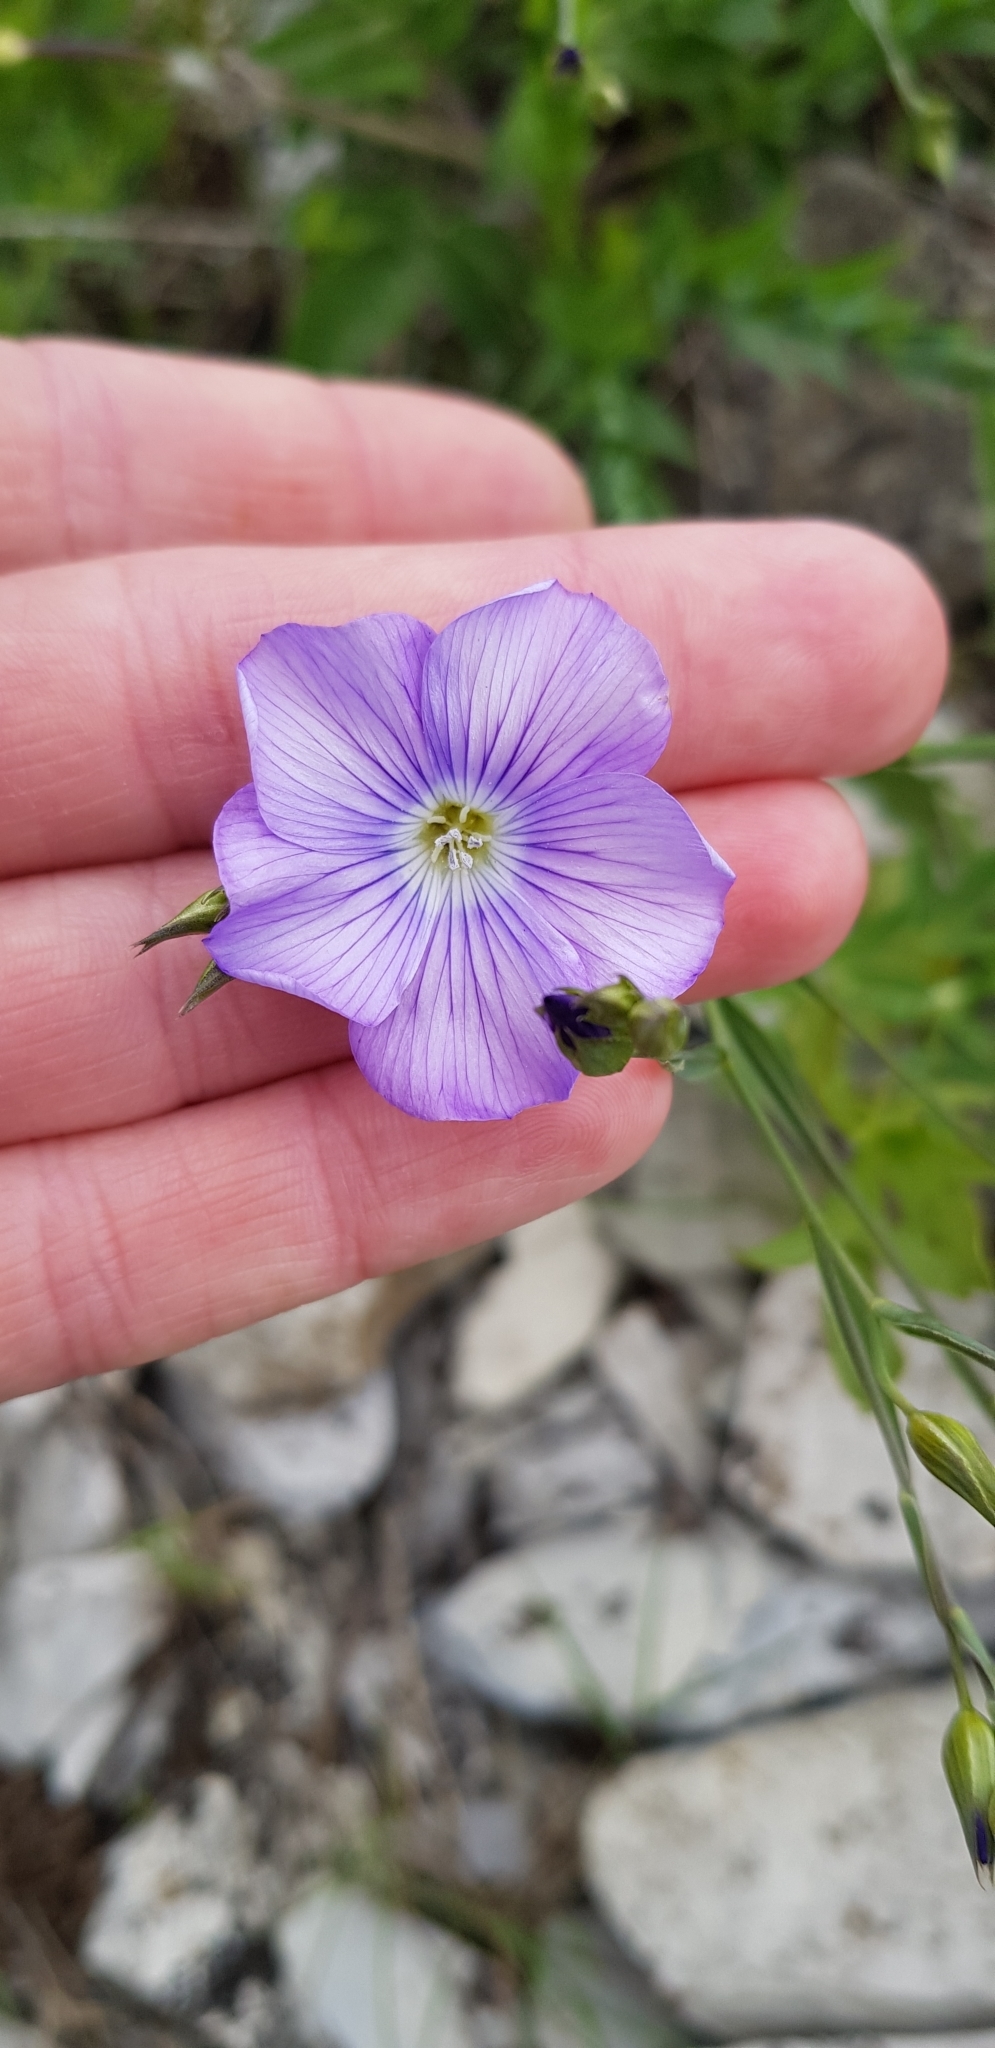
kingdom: Plantae
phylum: Tracheophyta
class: Magnoliopsida
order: Malpighiales
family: Linaceae
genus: Linum
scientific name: Linum nervosum
